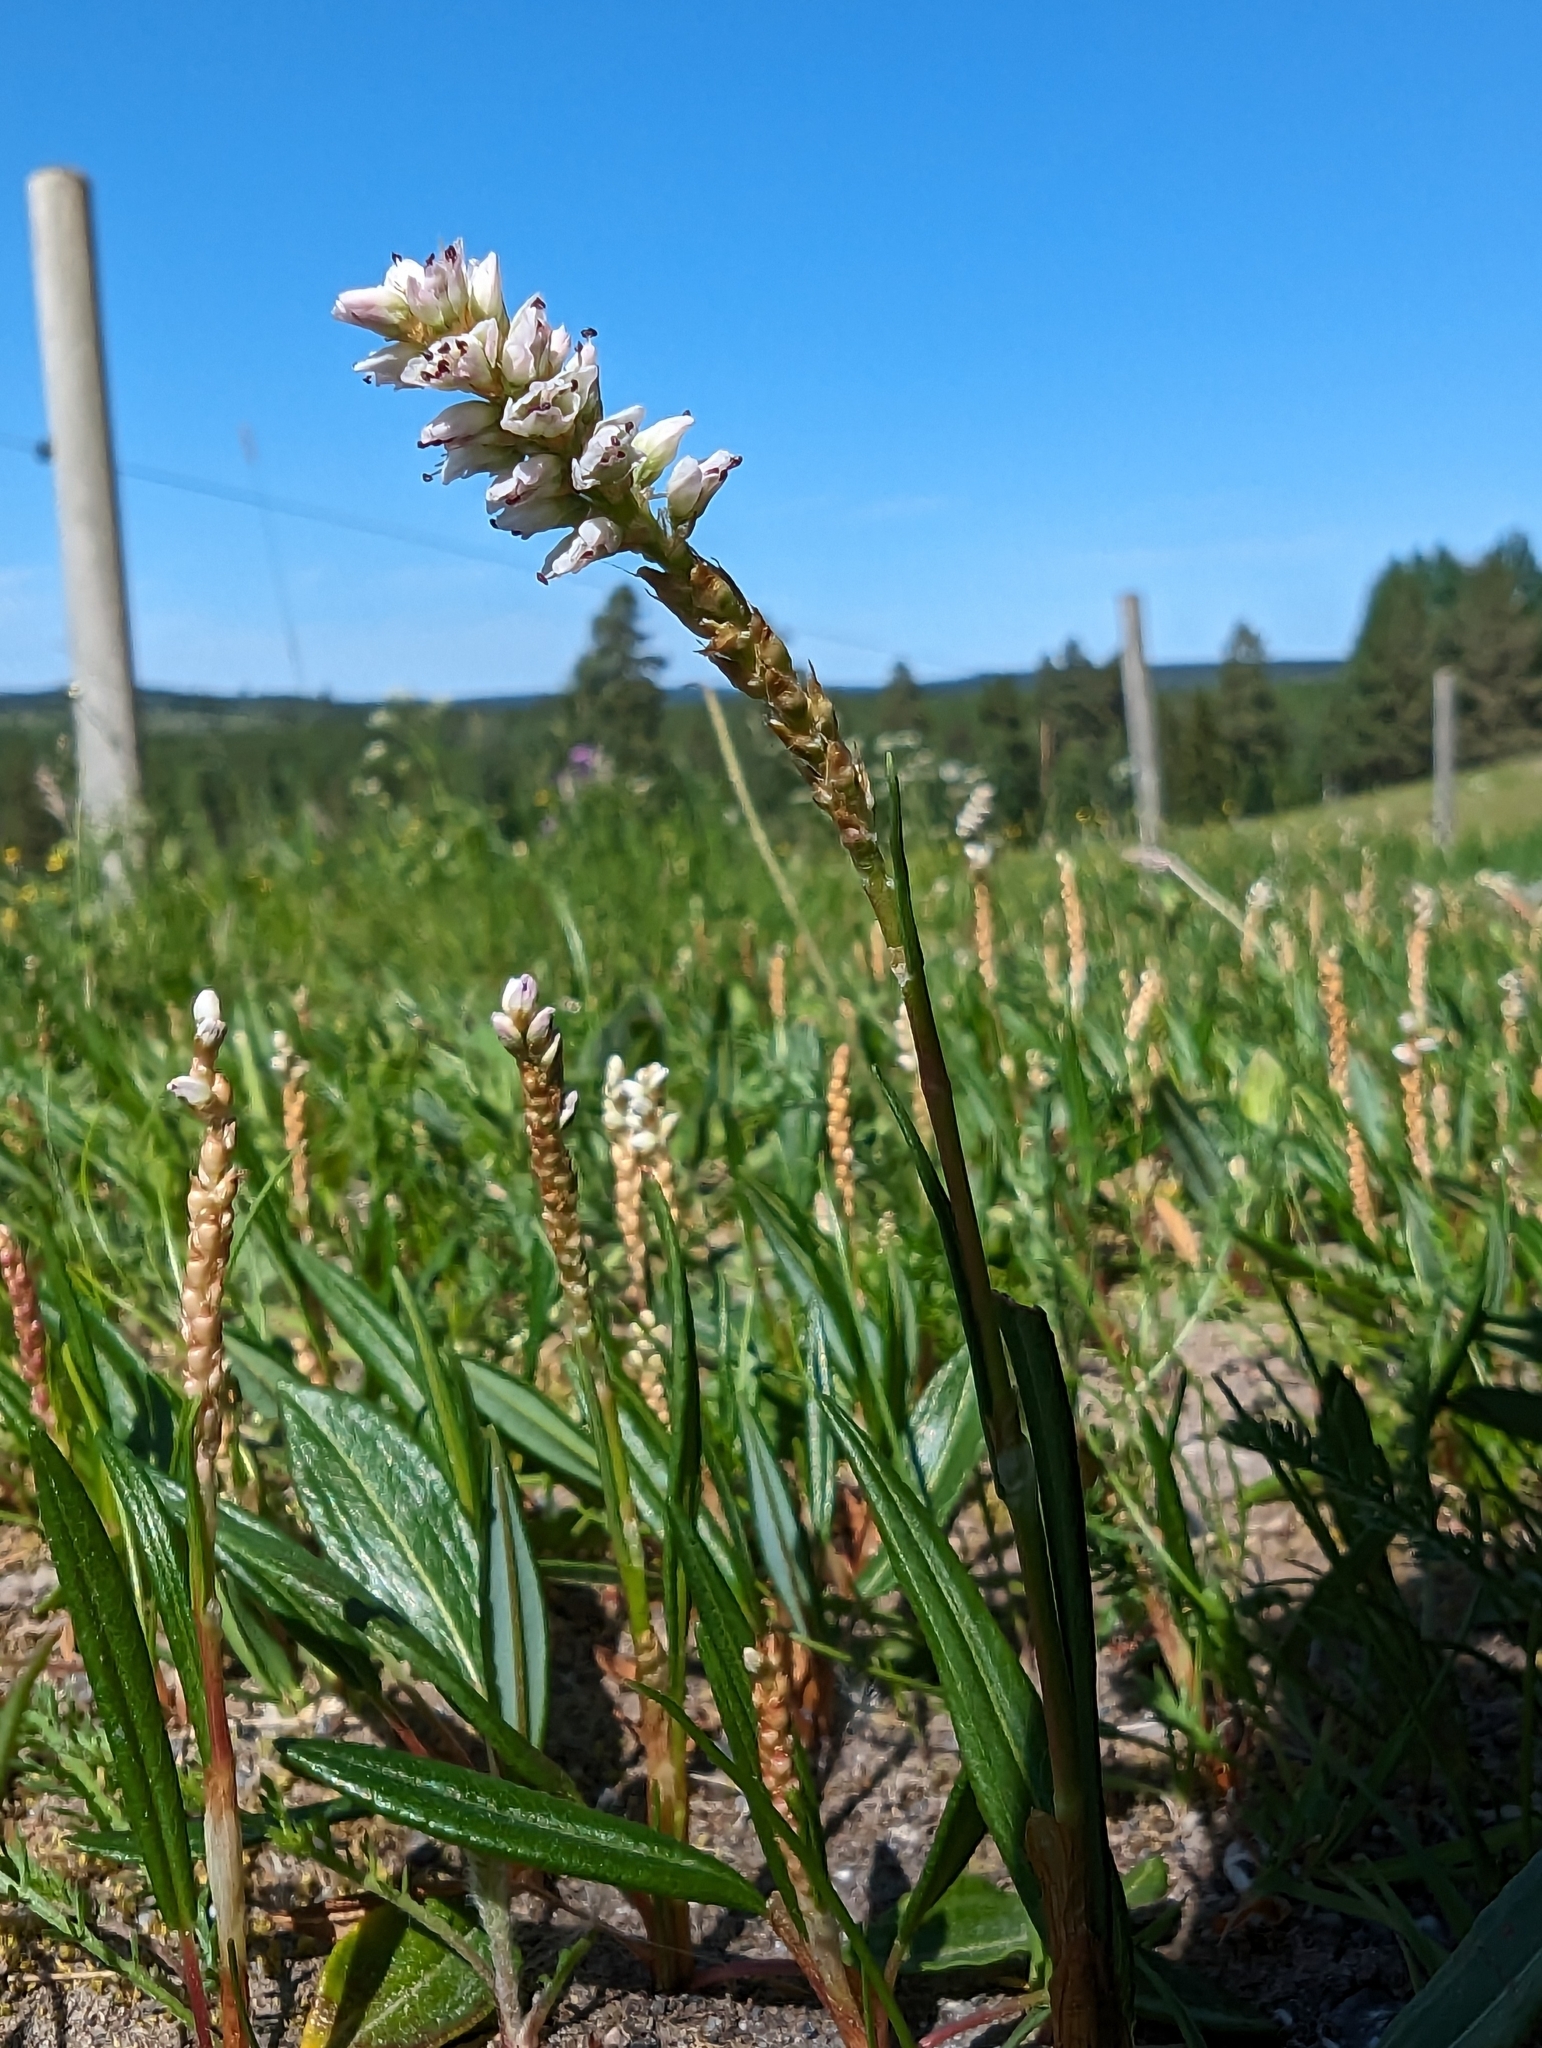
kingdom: Plantae
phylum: Tracheophyta
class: Magnoliopsida
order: Caryophyllales
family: Polygonaceae
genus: Bistorta
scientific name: Bistorta vivipara
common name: Alpine bistort
